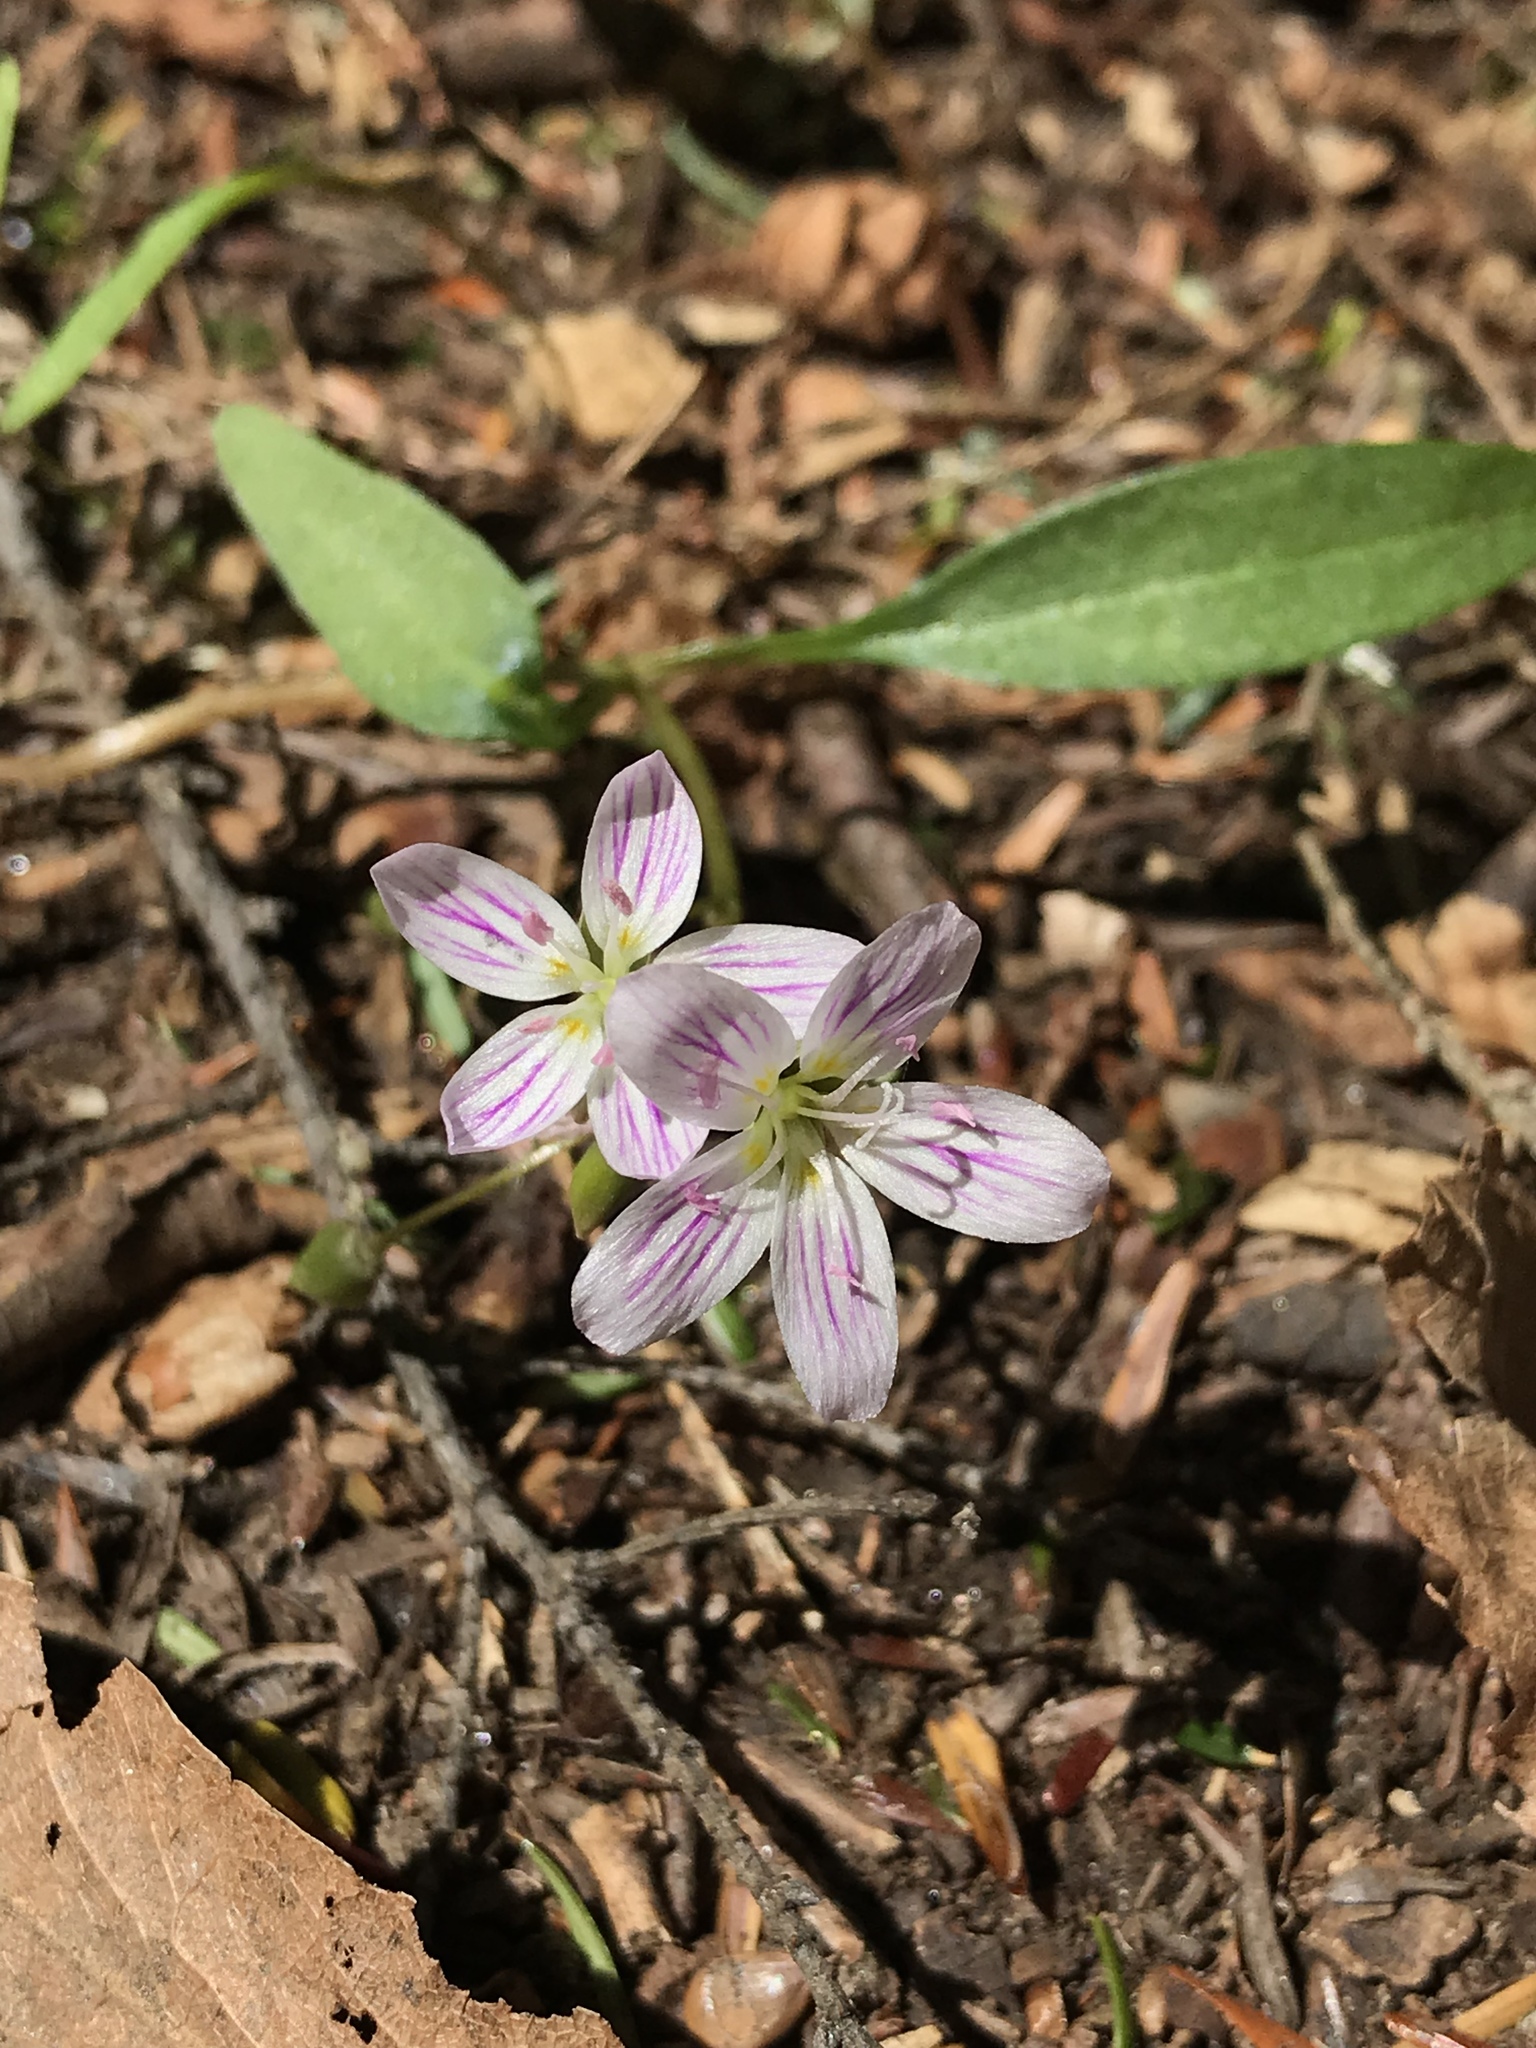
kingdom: Plantae
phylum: Tracheophyta
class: Magnoliopsida
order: Caryophyllales
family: Montiaceae
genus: Claytonia
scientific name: Claytonia caroliniana
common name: Carolina spring beauty
